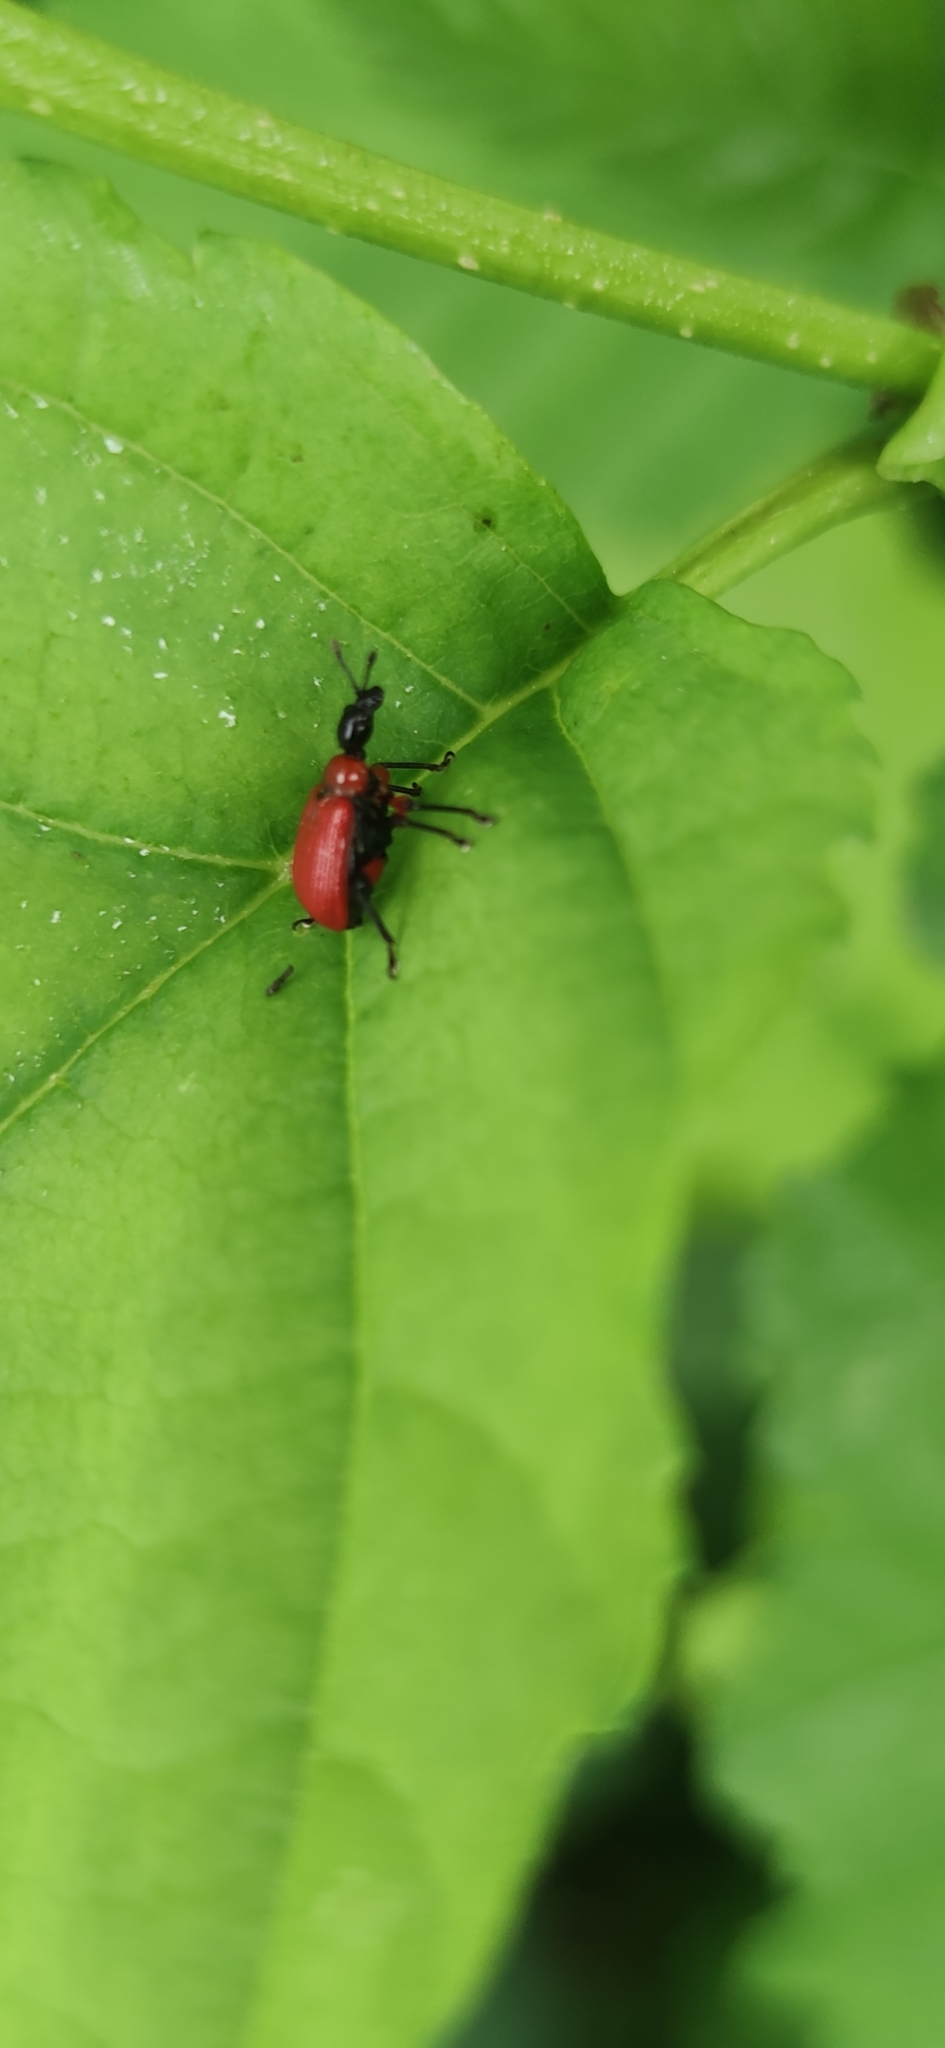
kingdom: Animalia
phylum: Arthropoda
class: Insecta
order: Coleoptera
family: Attelabidae
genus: Apoderus
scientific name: Apoderus coryli
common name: Hazel leaf roller
